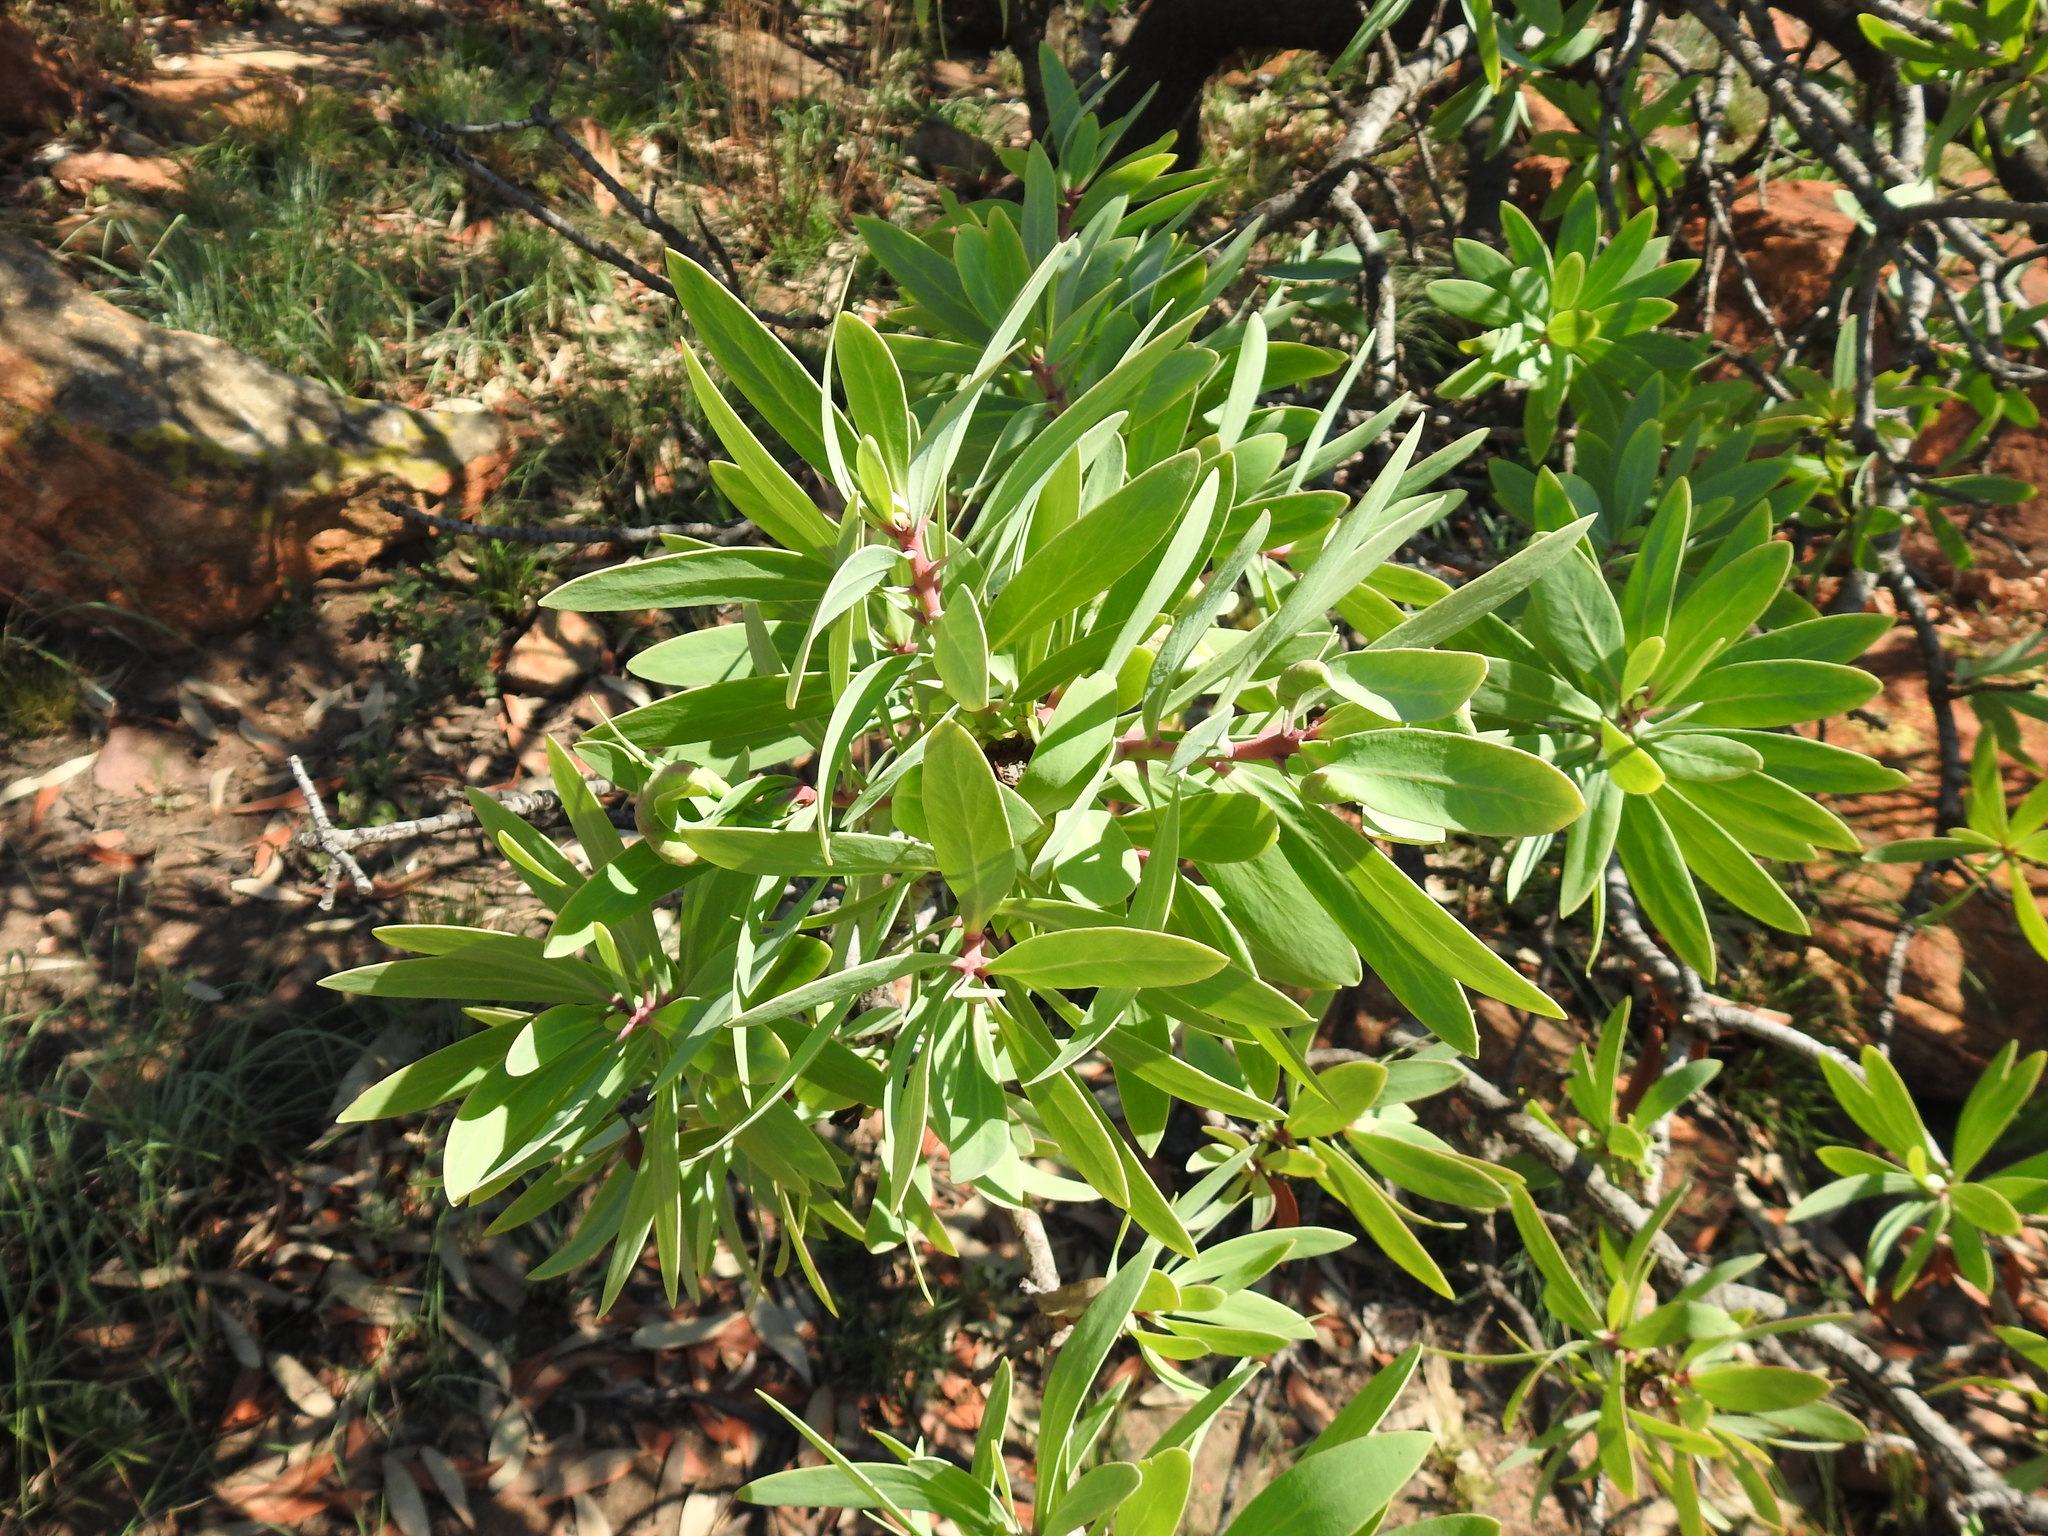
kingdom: Plantae
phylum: Tracheophyta
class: Magnoliopsida
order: Proteales
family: Proteaceae
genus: Protea
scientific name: Protea caffra
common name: Common sugarbush
